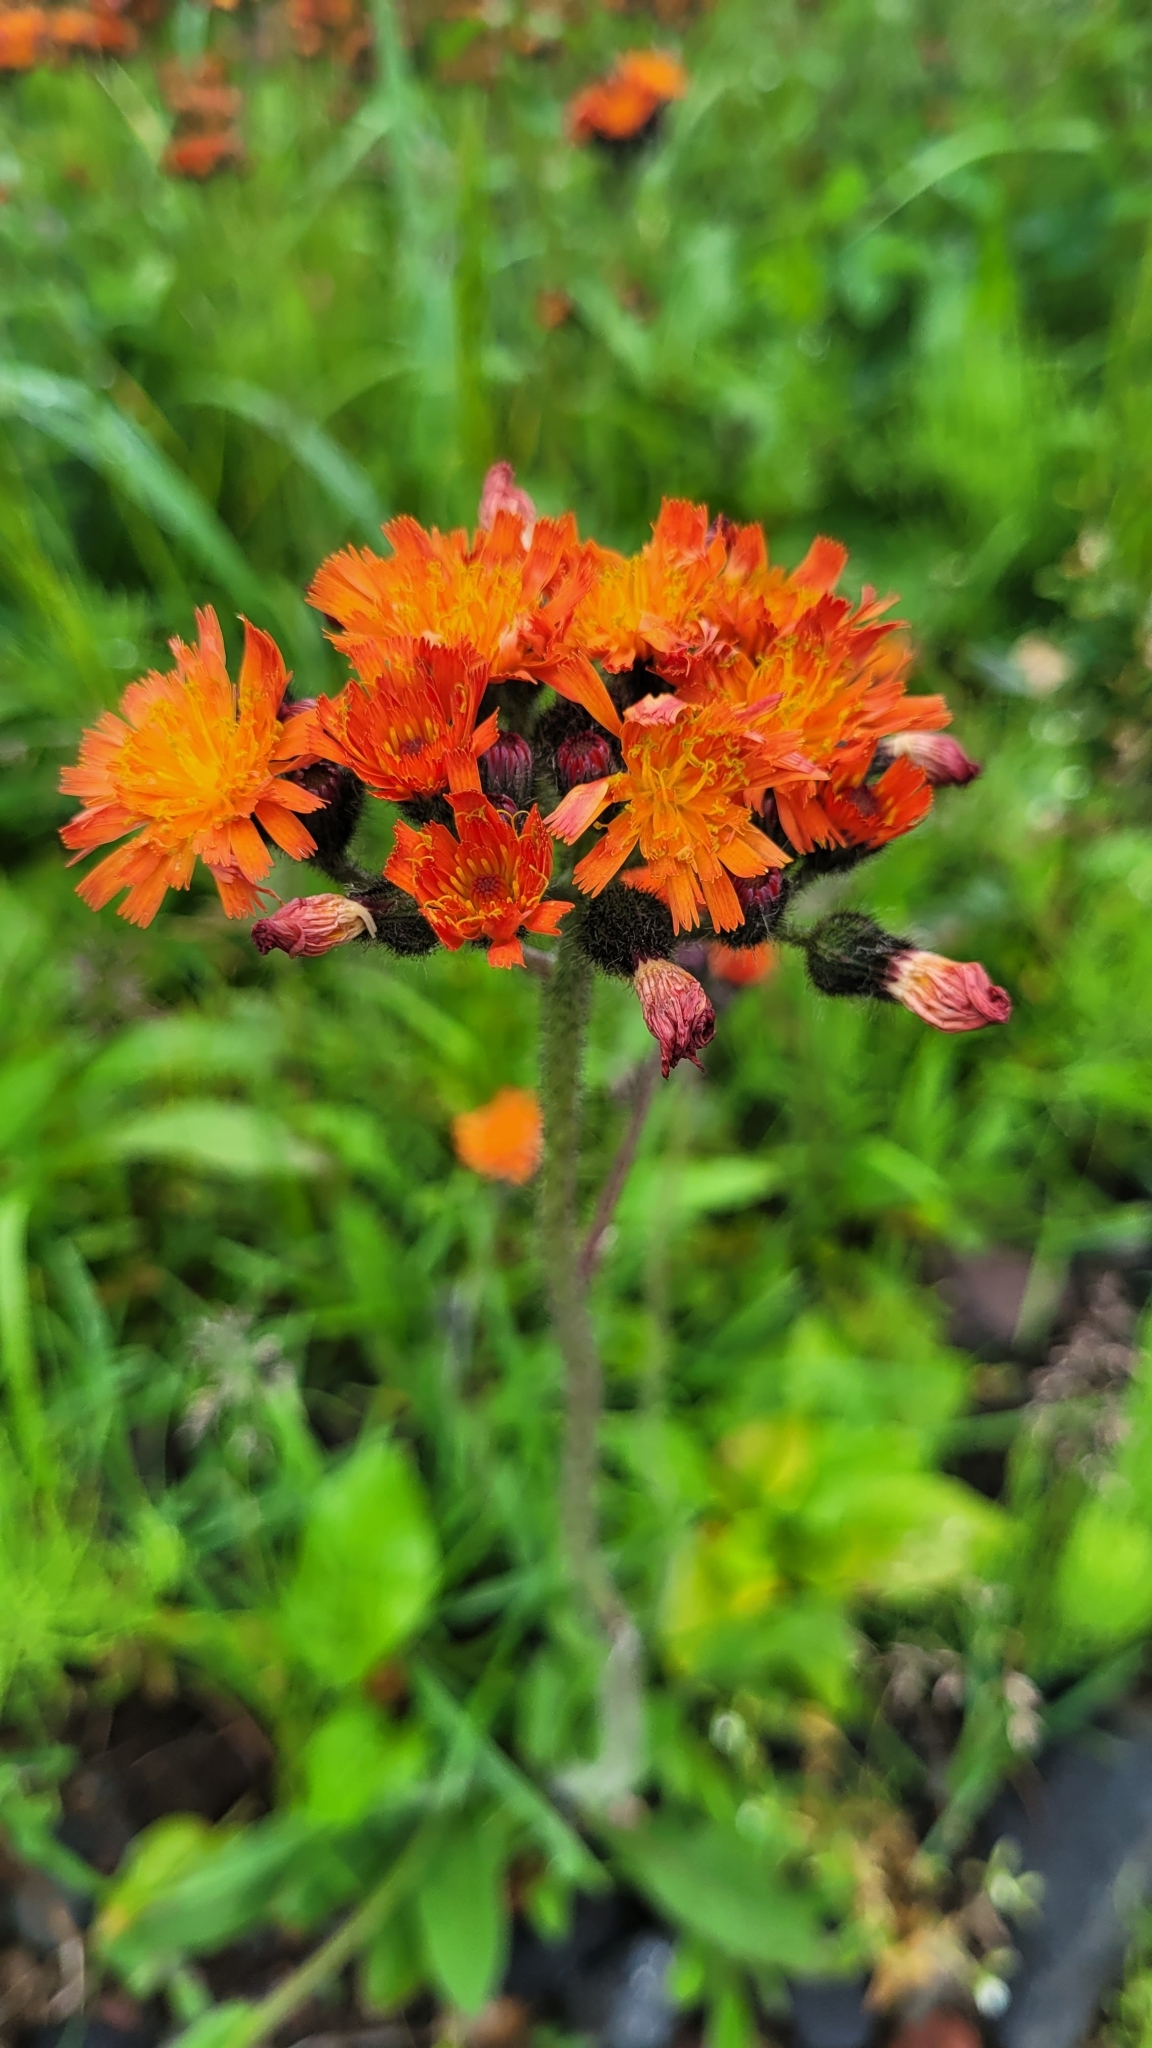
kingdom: Plantae
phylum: Tracheophyta
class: Magnoliopsida
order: Asterales
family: Asteraceae
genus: Pilosella
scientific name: Pilosella aurantiaca
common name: Fox-and-cubs
